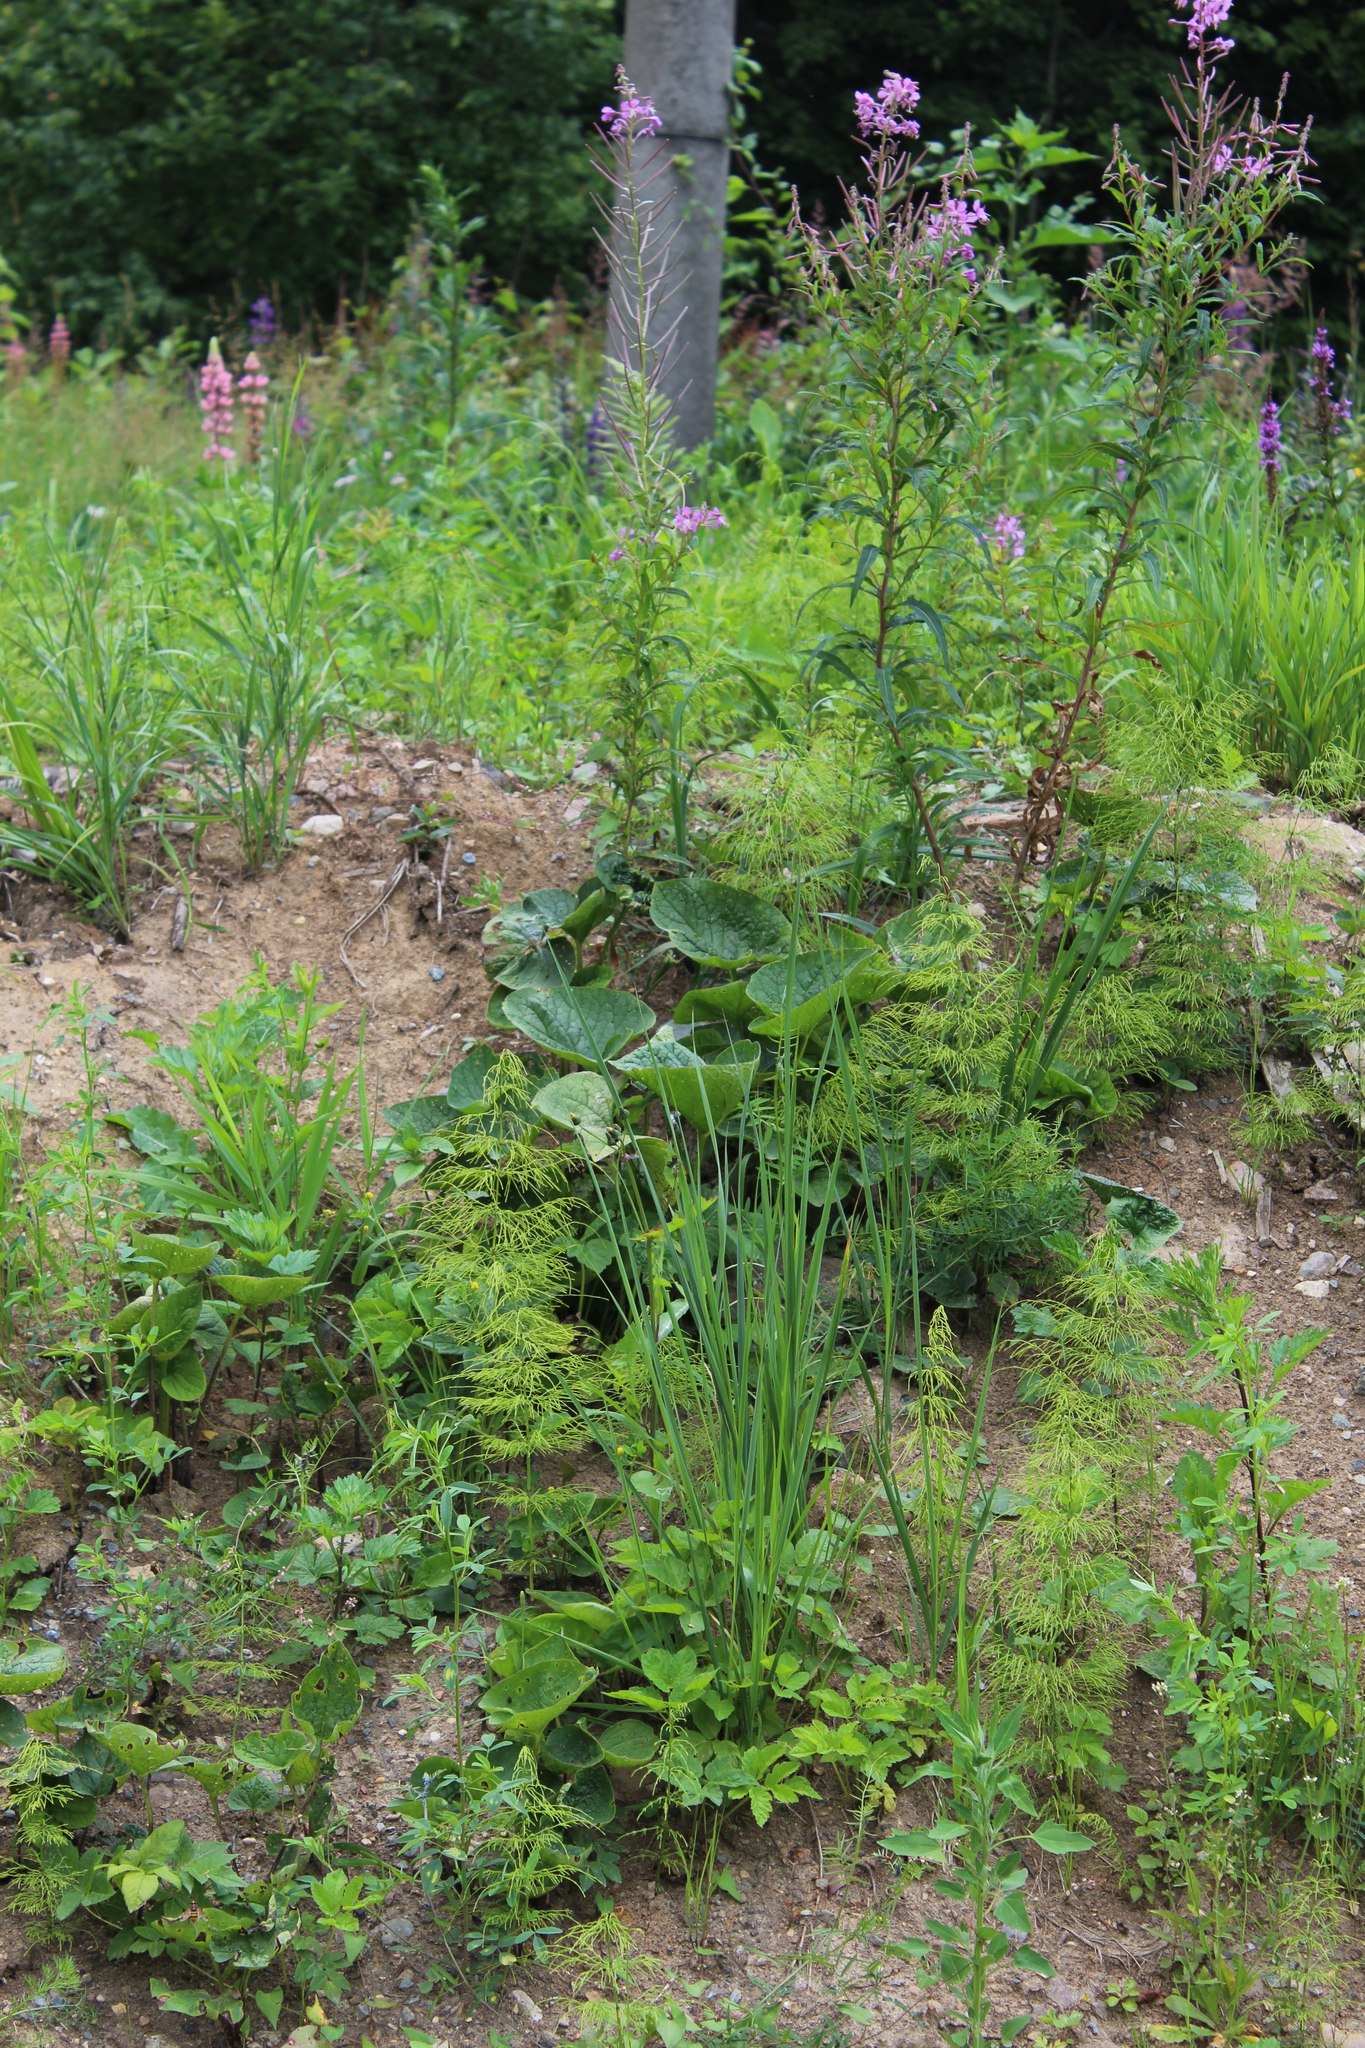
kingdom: Plantae
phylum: Tracheophyta
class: Magnoliopsida
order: Boraginales
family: Boraginaceae
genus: Brunnera
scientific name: Brunnera sibirica
